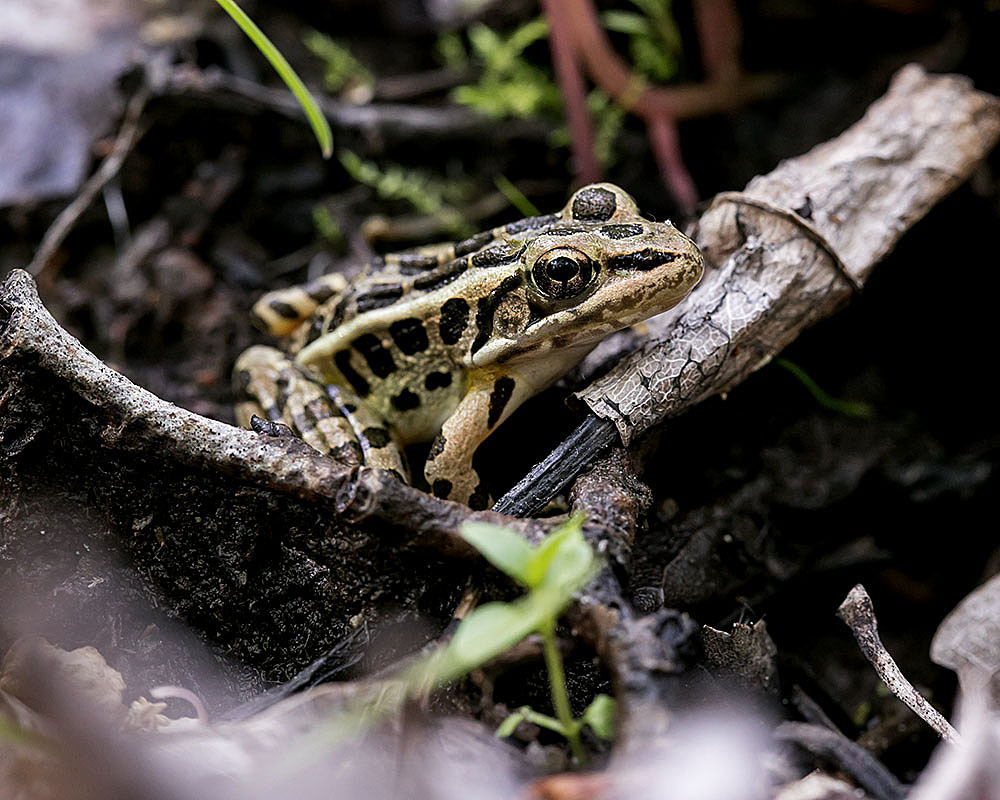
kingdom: Animalia
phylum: Chordata
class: Amphibia
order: Anura
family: Ranidae
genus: Lithobates
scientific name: Lithobates palustris
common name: Pickerel frog
